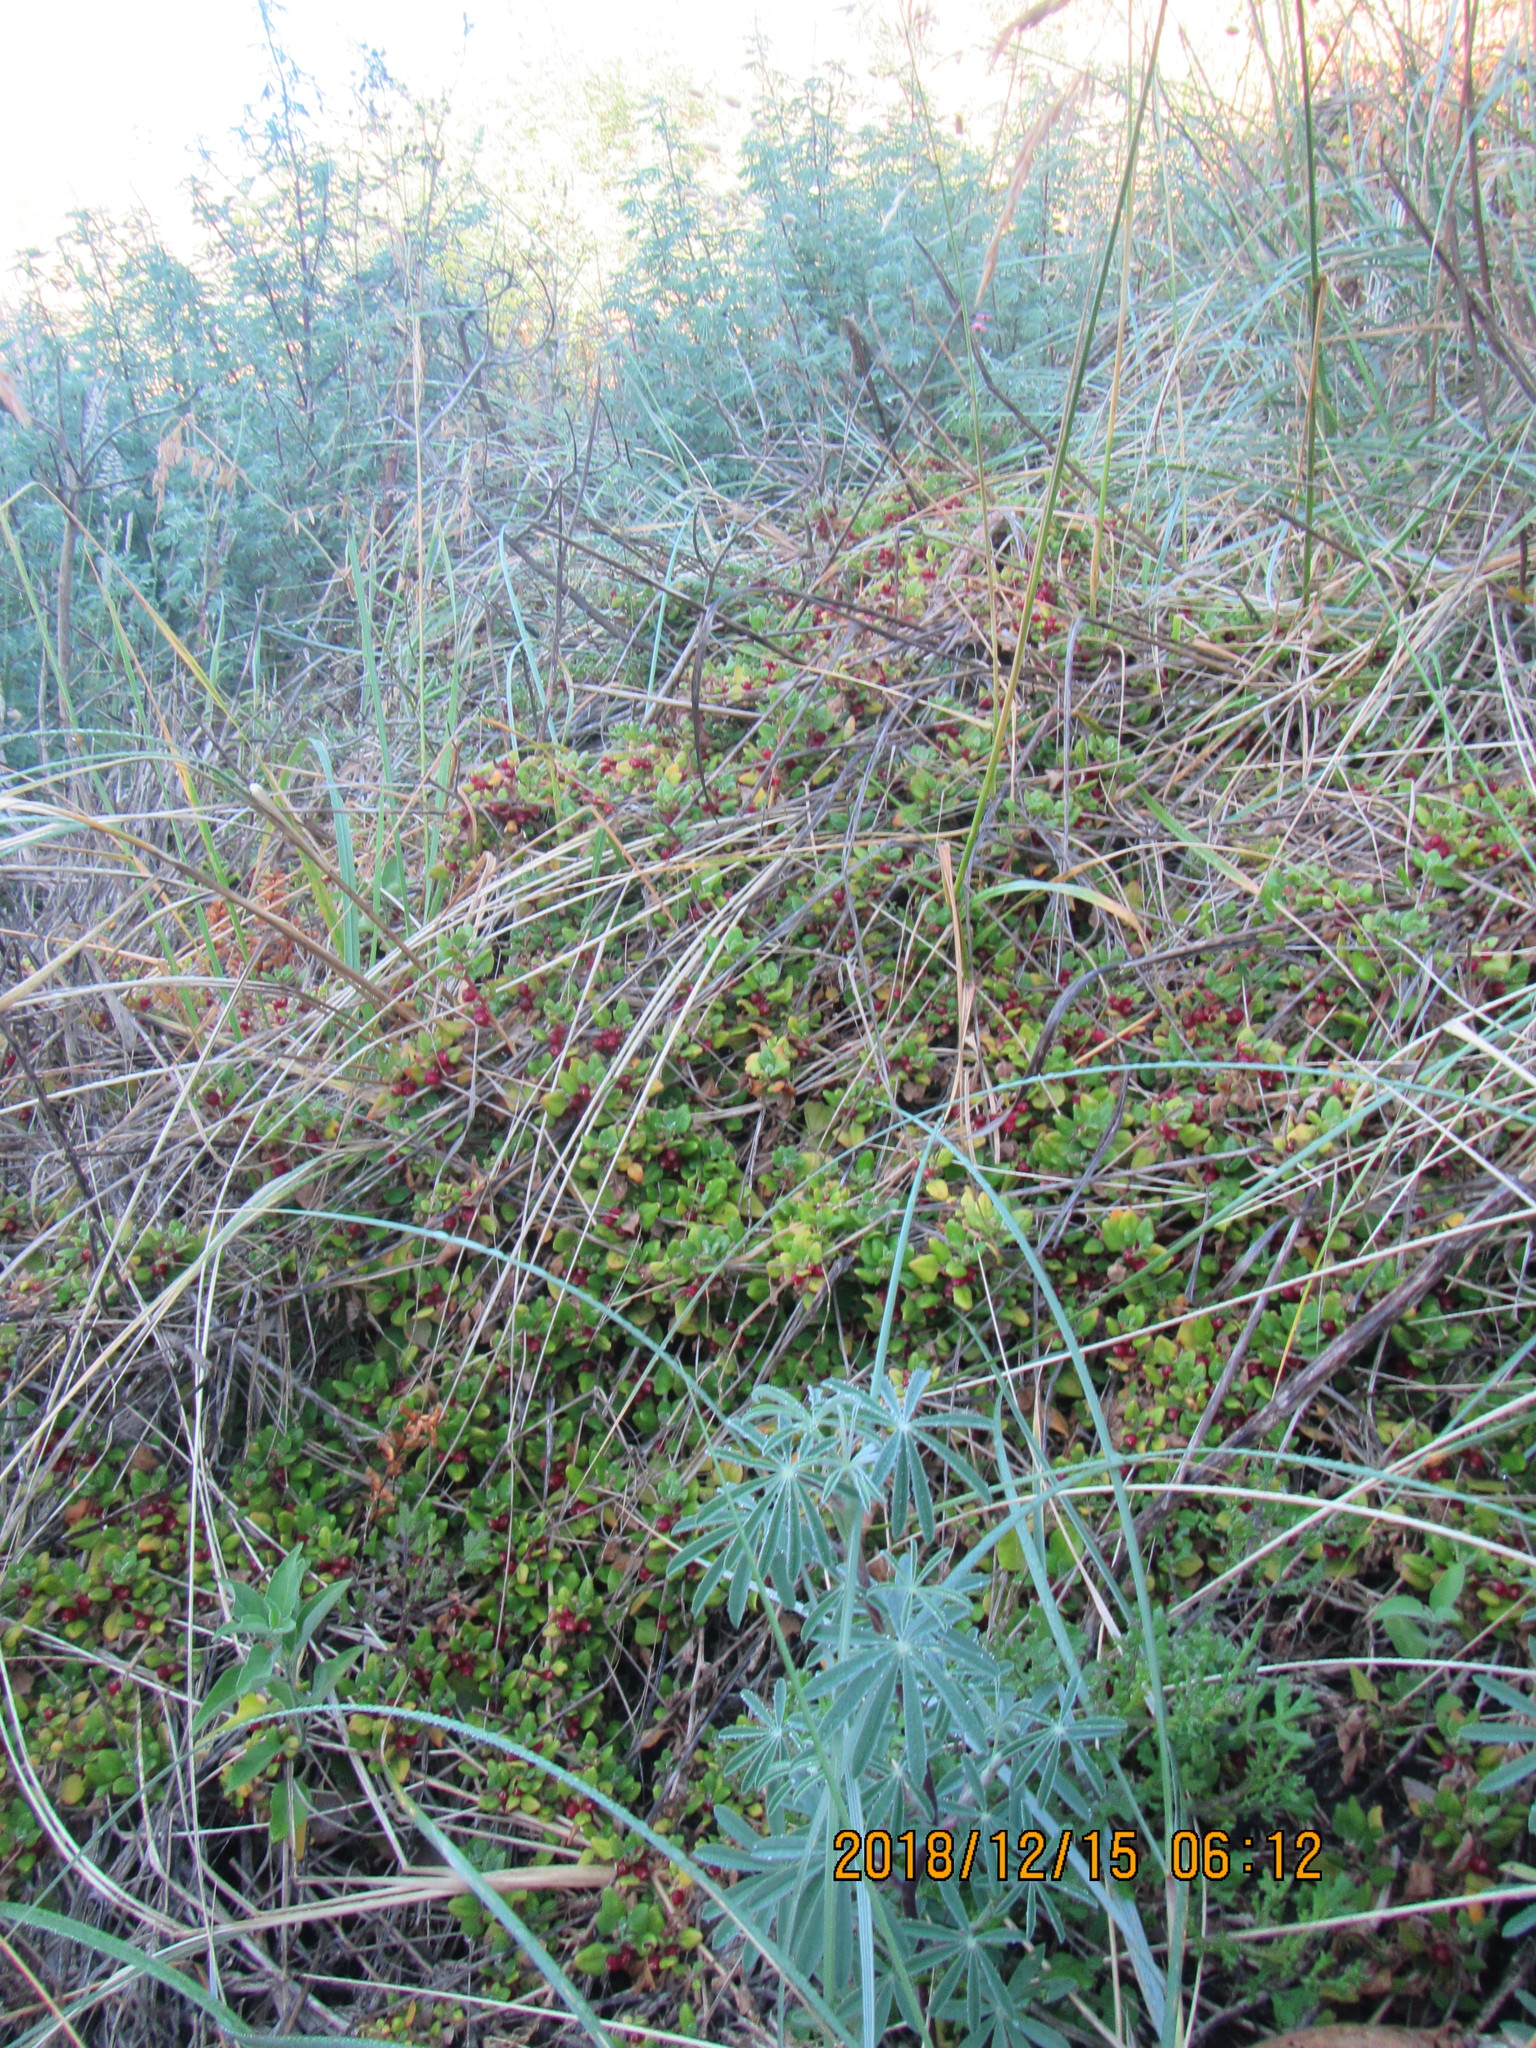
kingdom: Plantae
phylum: Tracheophyta
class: Magnoliopsida
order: Caryophyllales
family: Aizoaceae
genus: Tetragonia
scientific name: Tetragonia implexicoma
